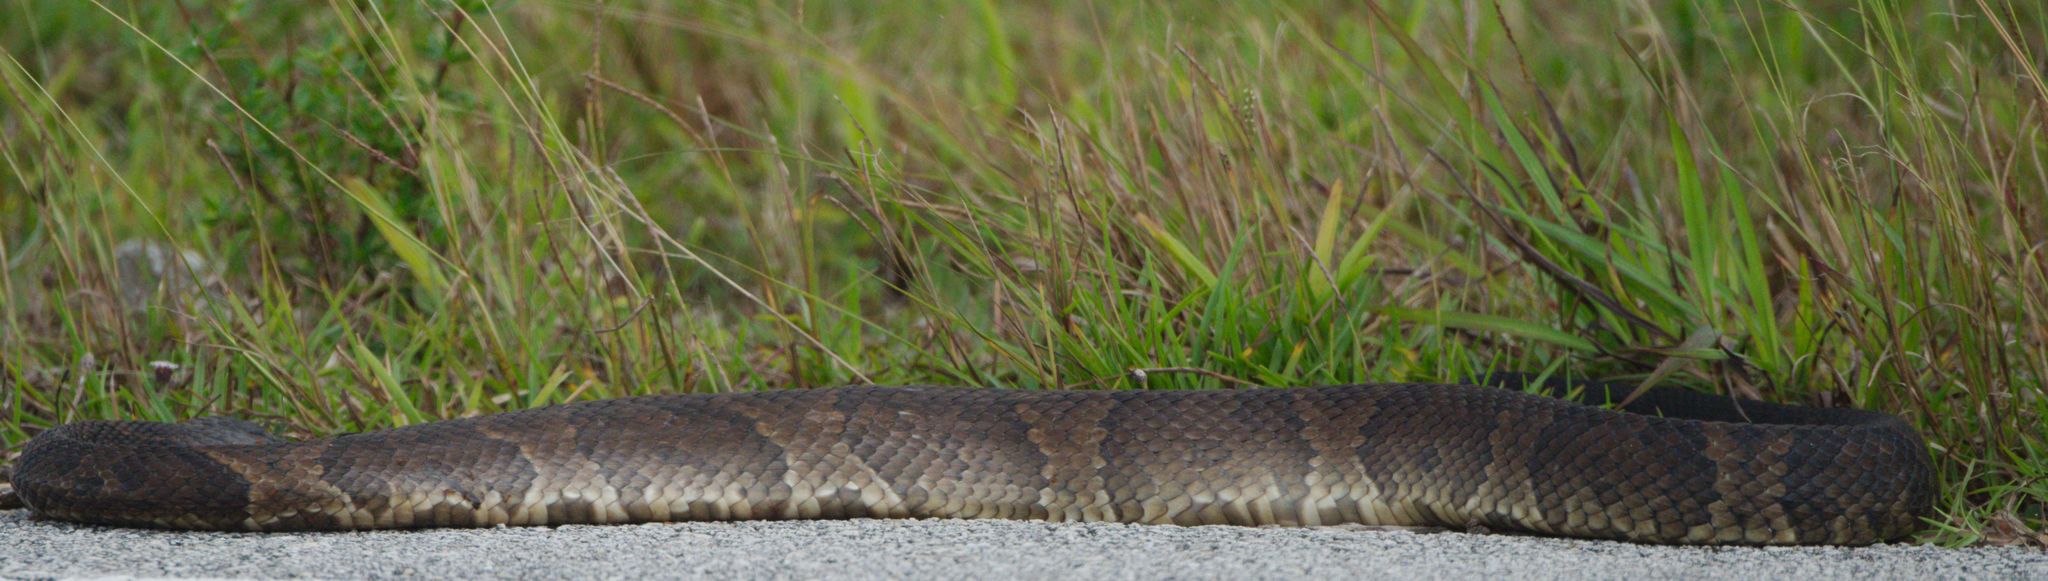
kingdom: Animalia
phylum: Chordata
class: Squamata
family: Viperidae
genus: Agkistrodon
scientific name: Agkistrodon conanti
